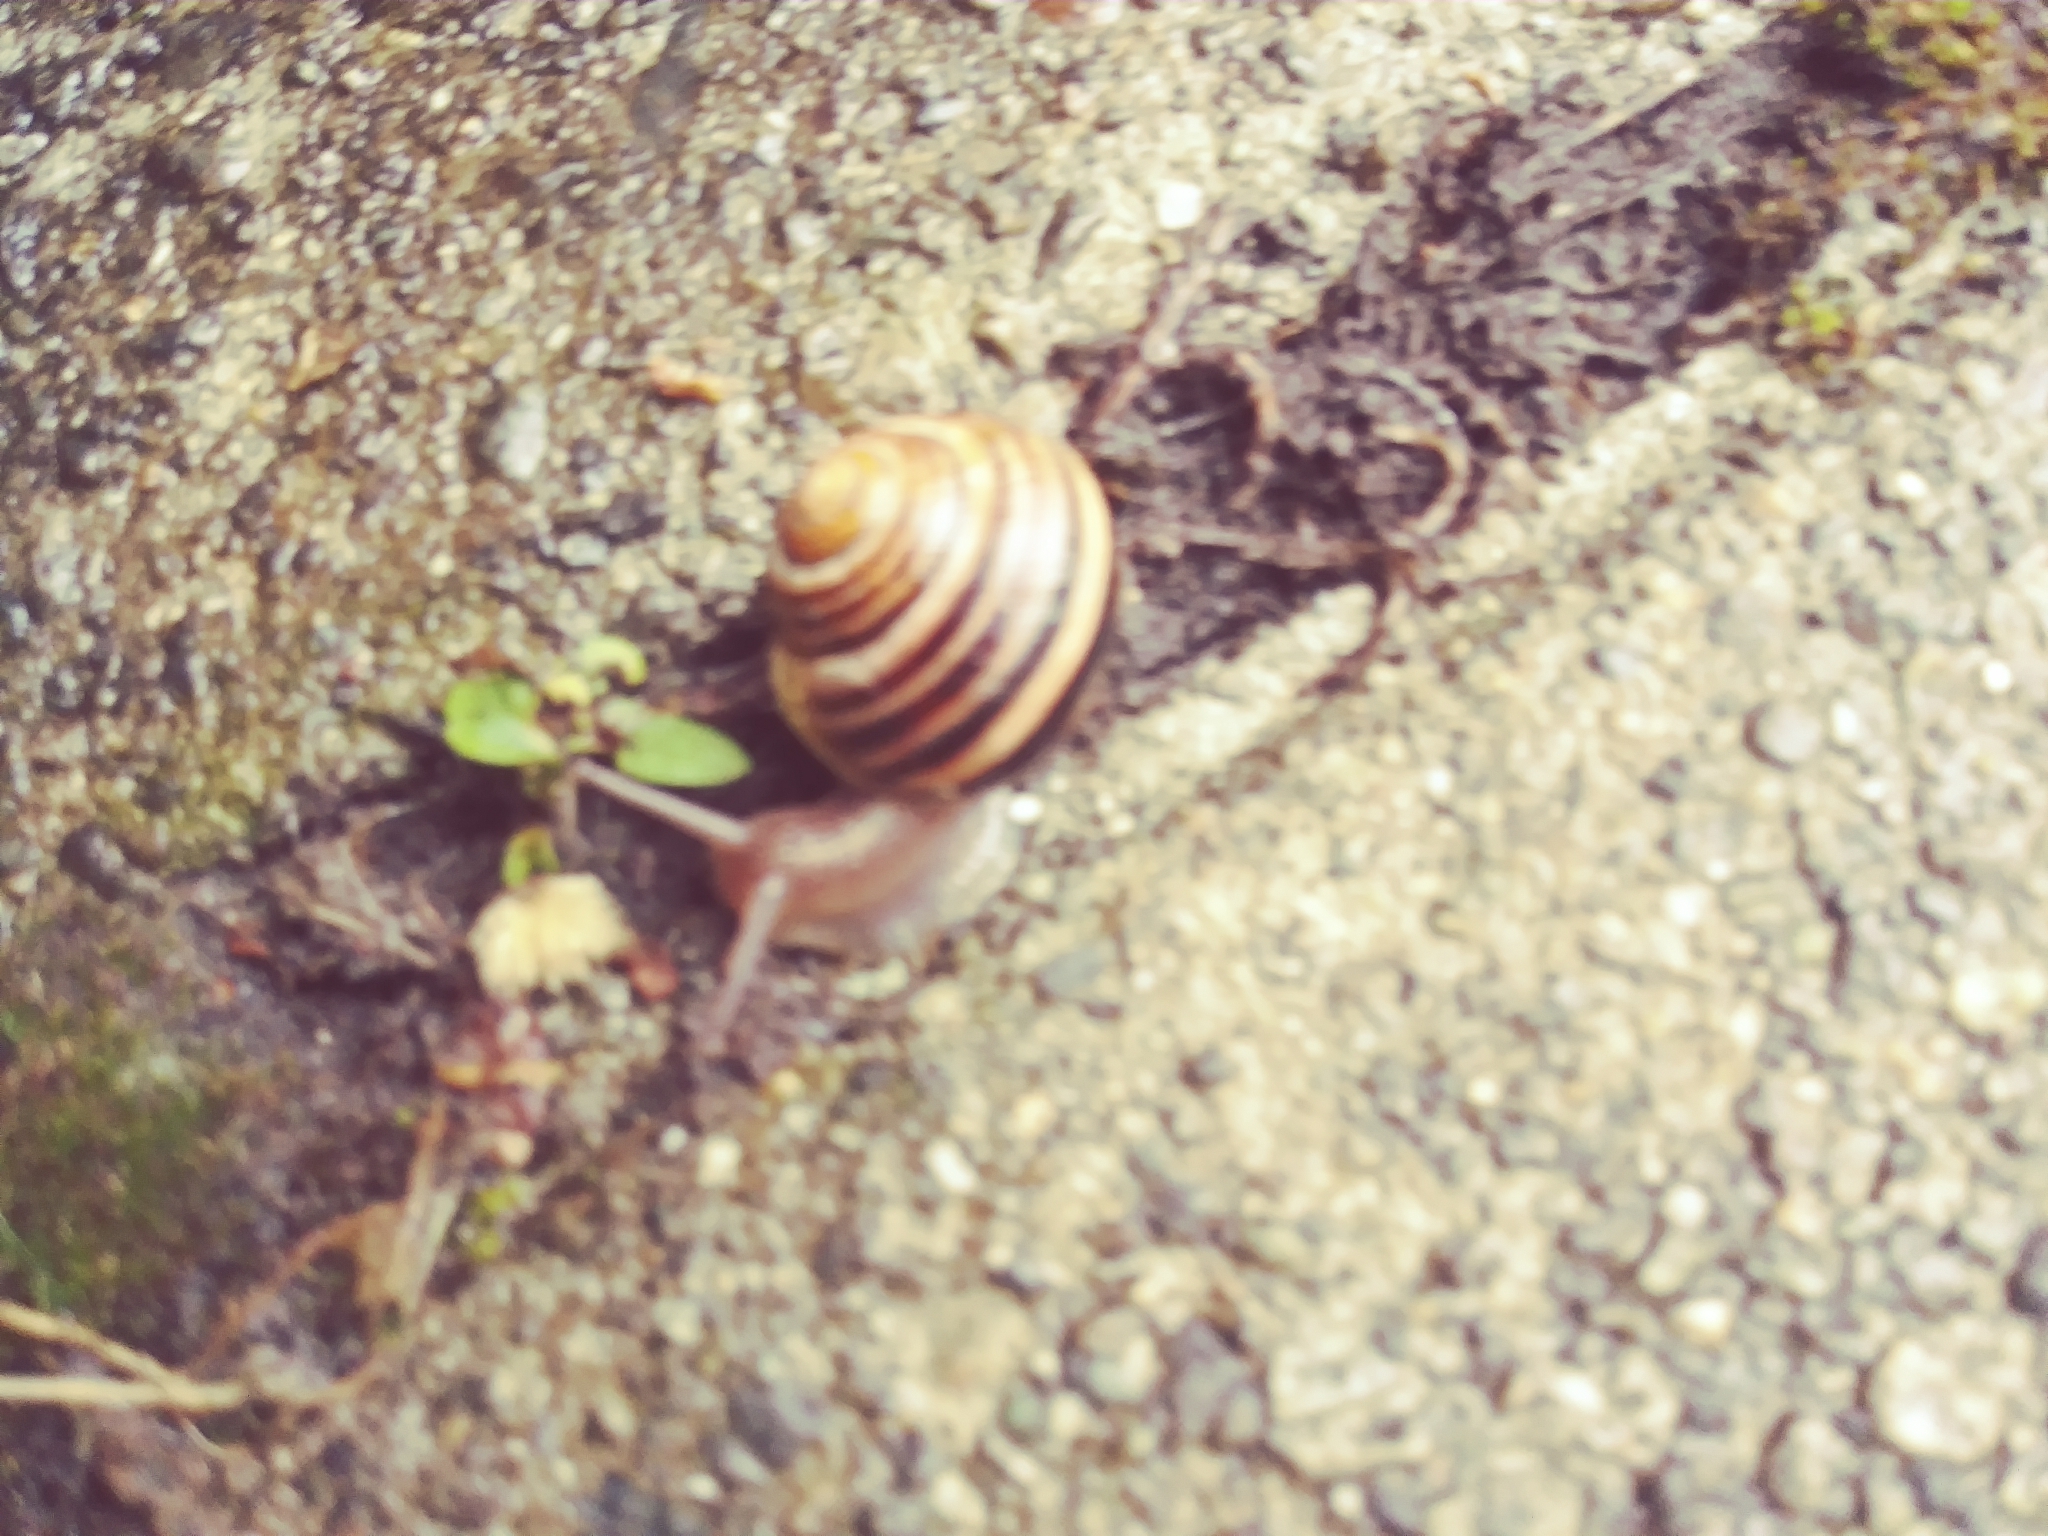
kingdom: Animalia
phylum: Mollusca
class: Gastropoda
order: Stylommatophora
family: Helicidae
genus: Cepaea
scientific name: Cepaea nemoralis
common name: Grovesnail
